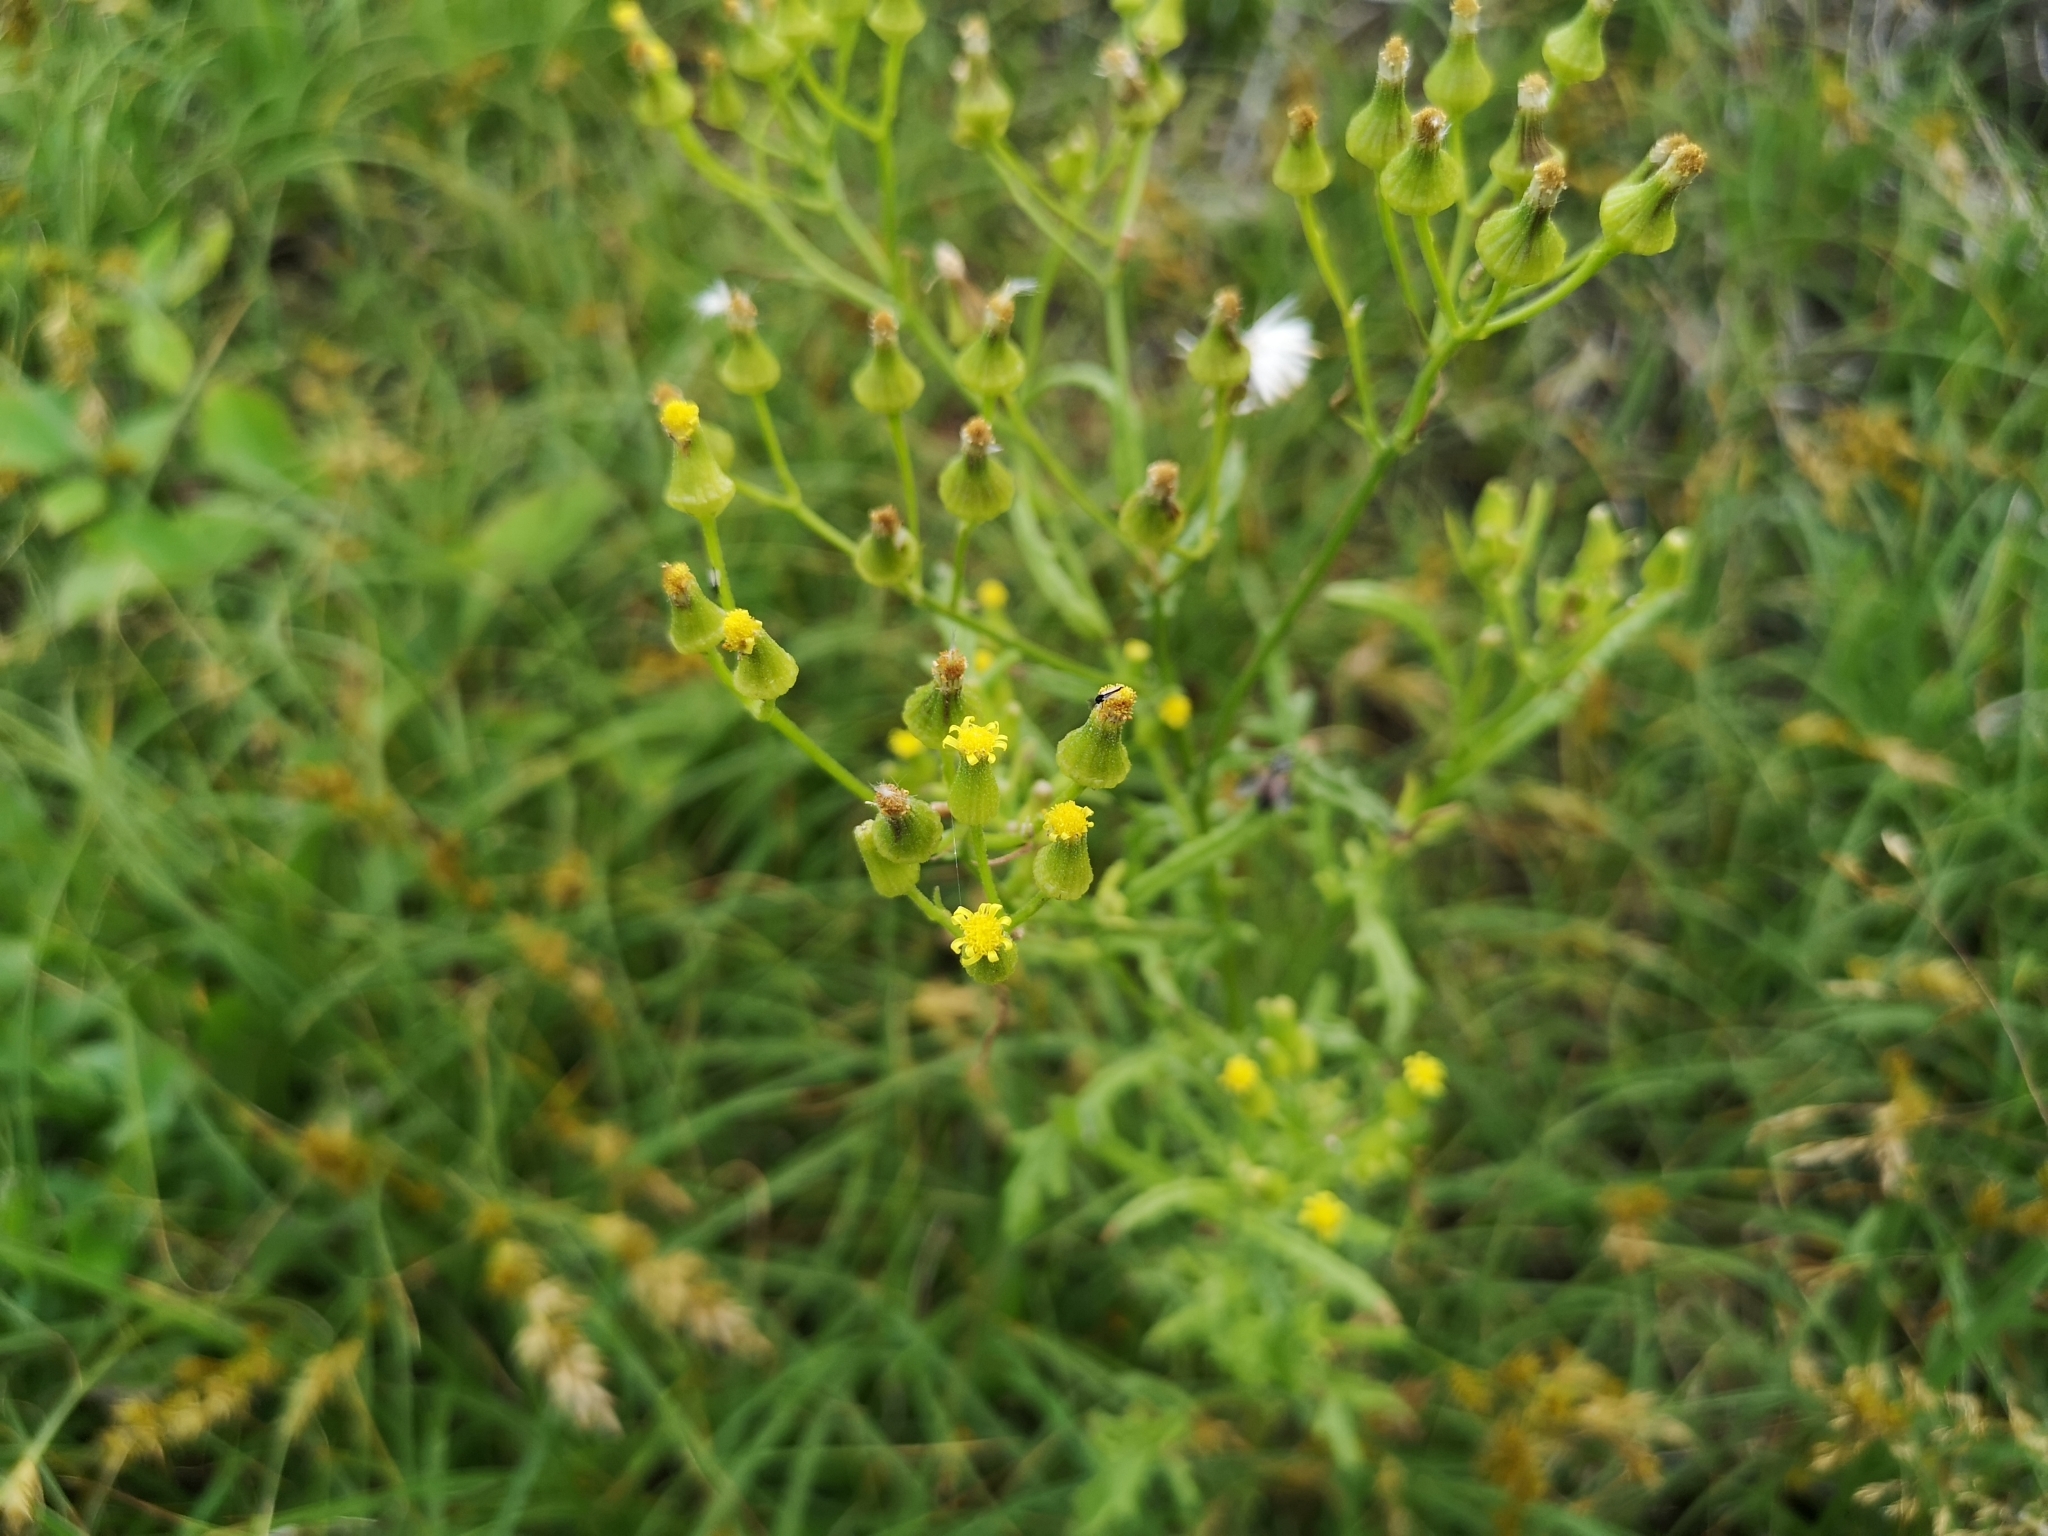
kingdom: Plantae
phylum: Tracheophyta
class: Magnoliopsida
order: Asterales
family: Asteraceae
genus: Senecio
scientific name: Senecio sylvaticus
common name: Woodland ragwort
